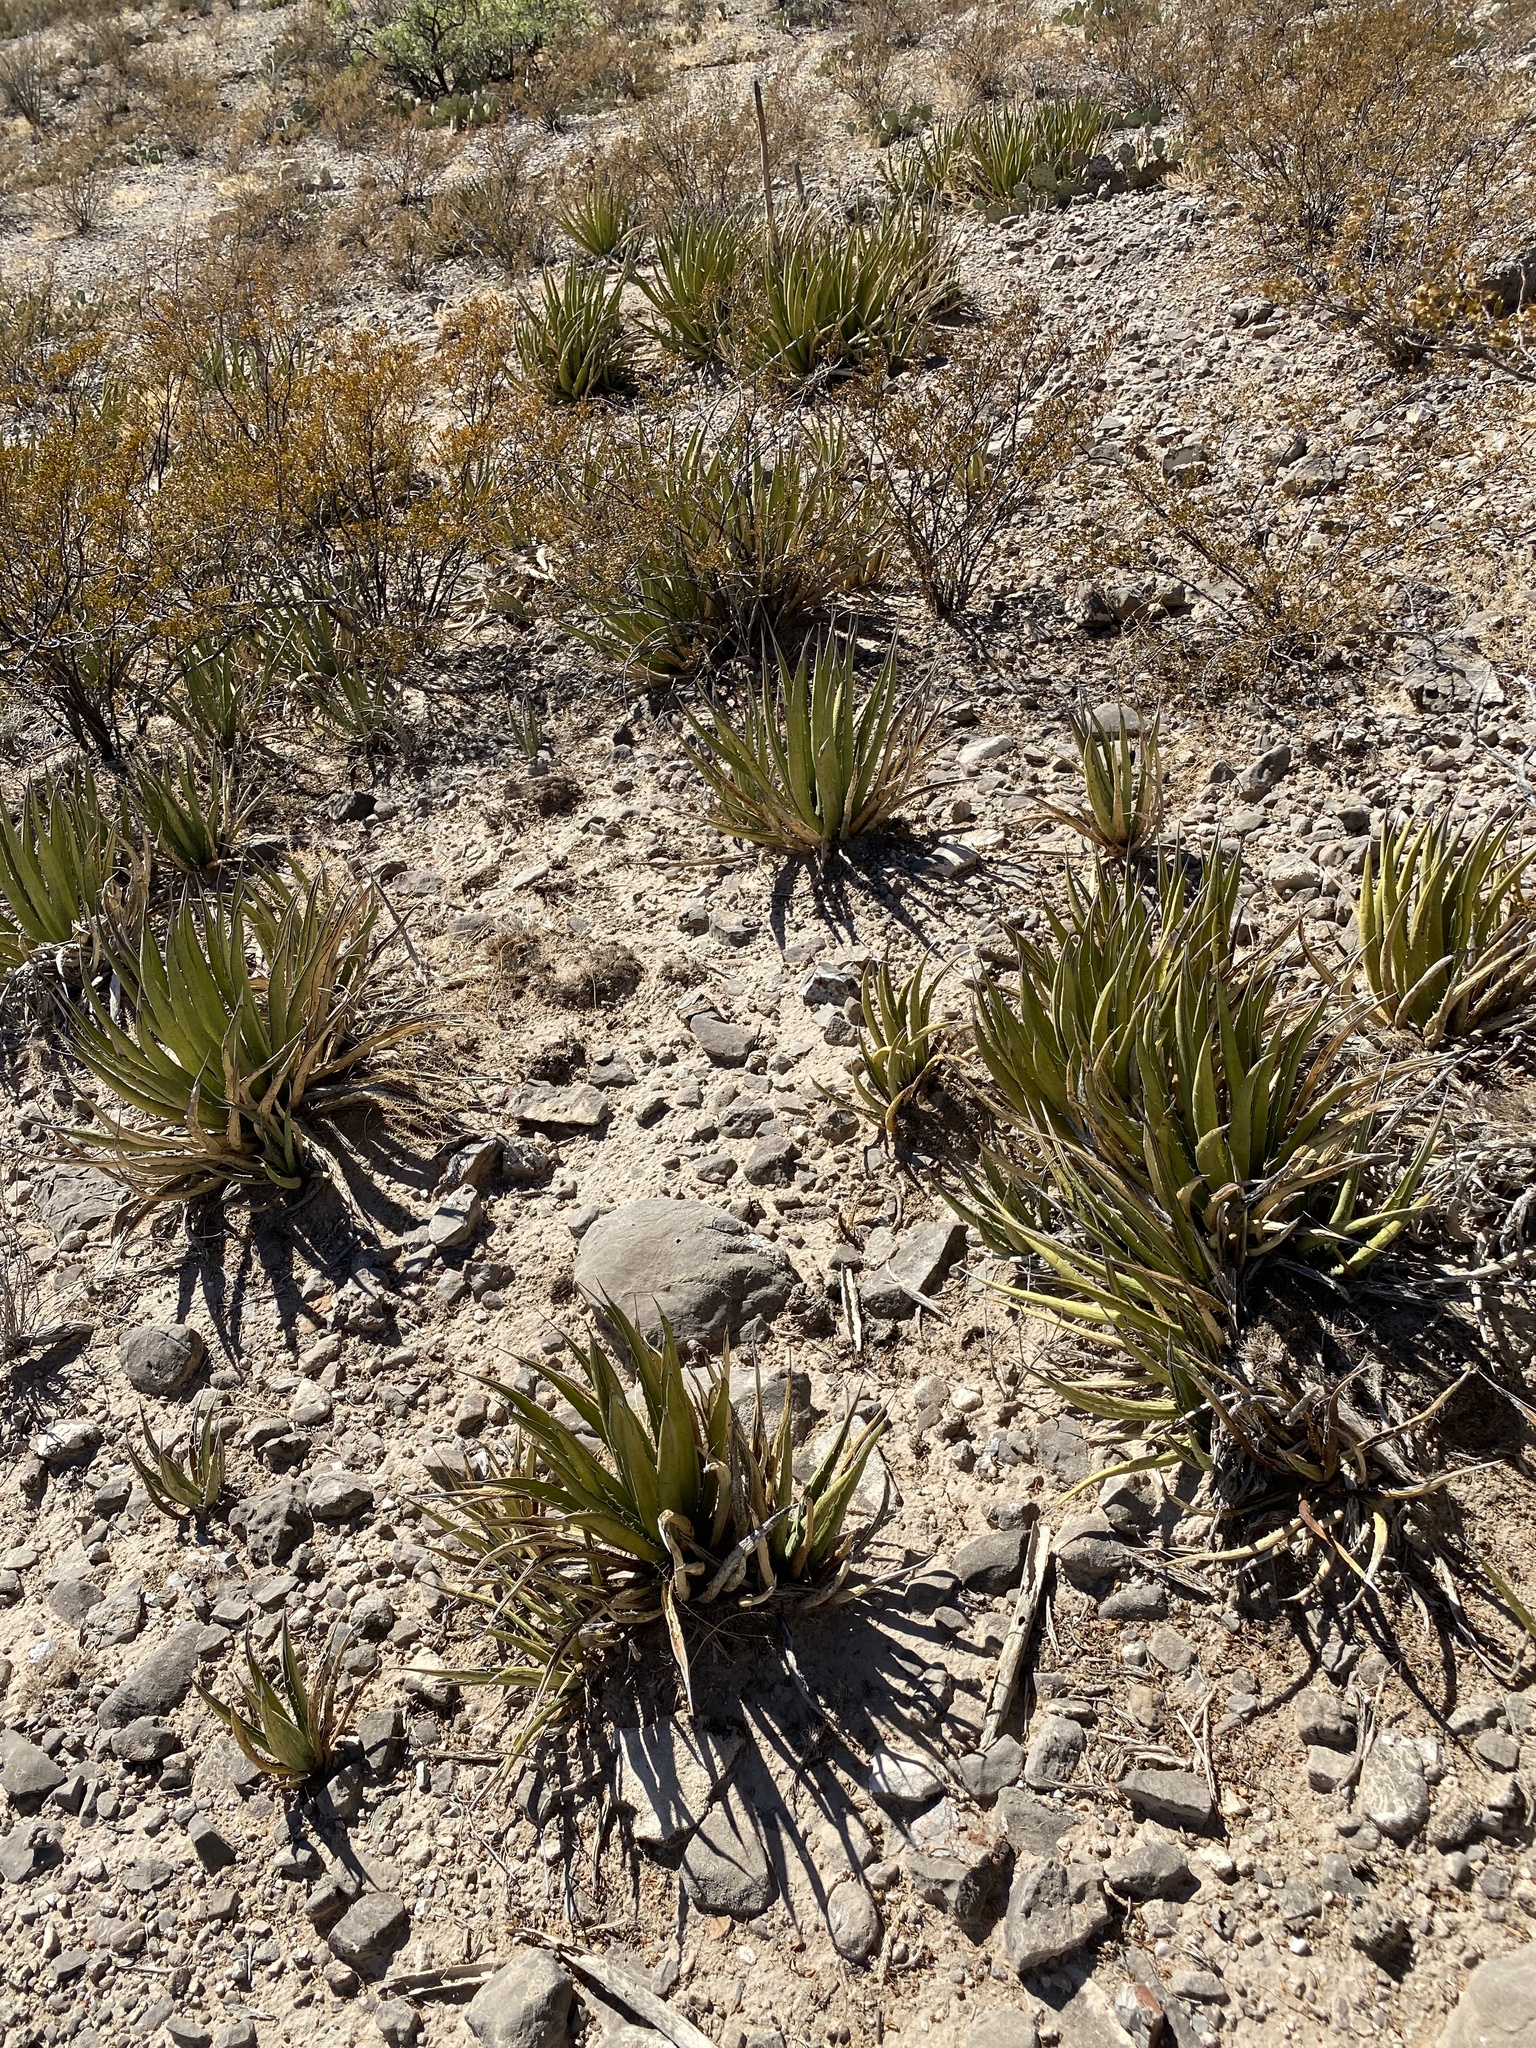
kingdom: Plantae
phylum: Tracheophyta
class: Liliopsida
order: Asparagales
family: Asparagaceae
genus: Agave
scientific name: Agave lechuguilla
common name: Lecheguilla agave
